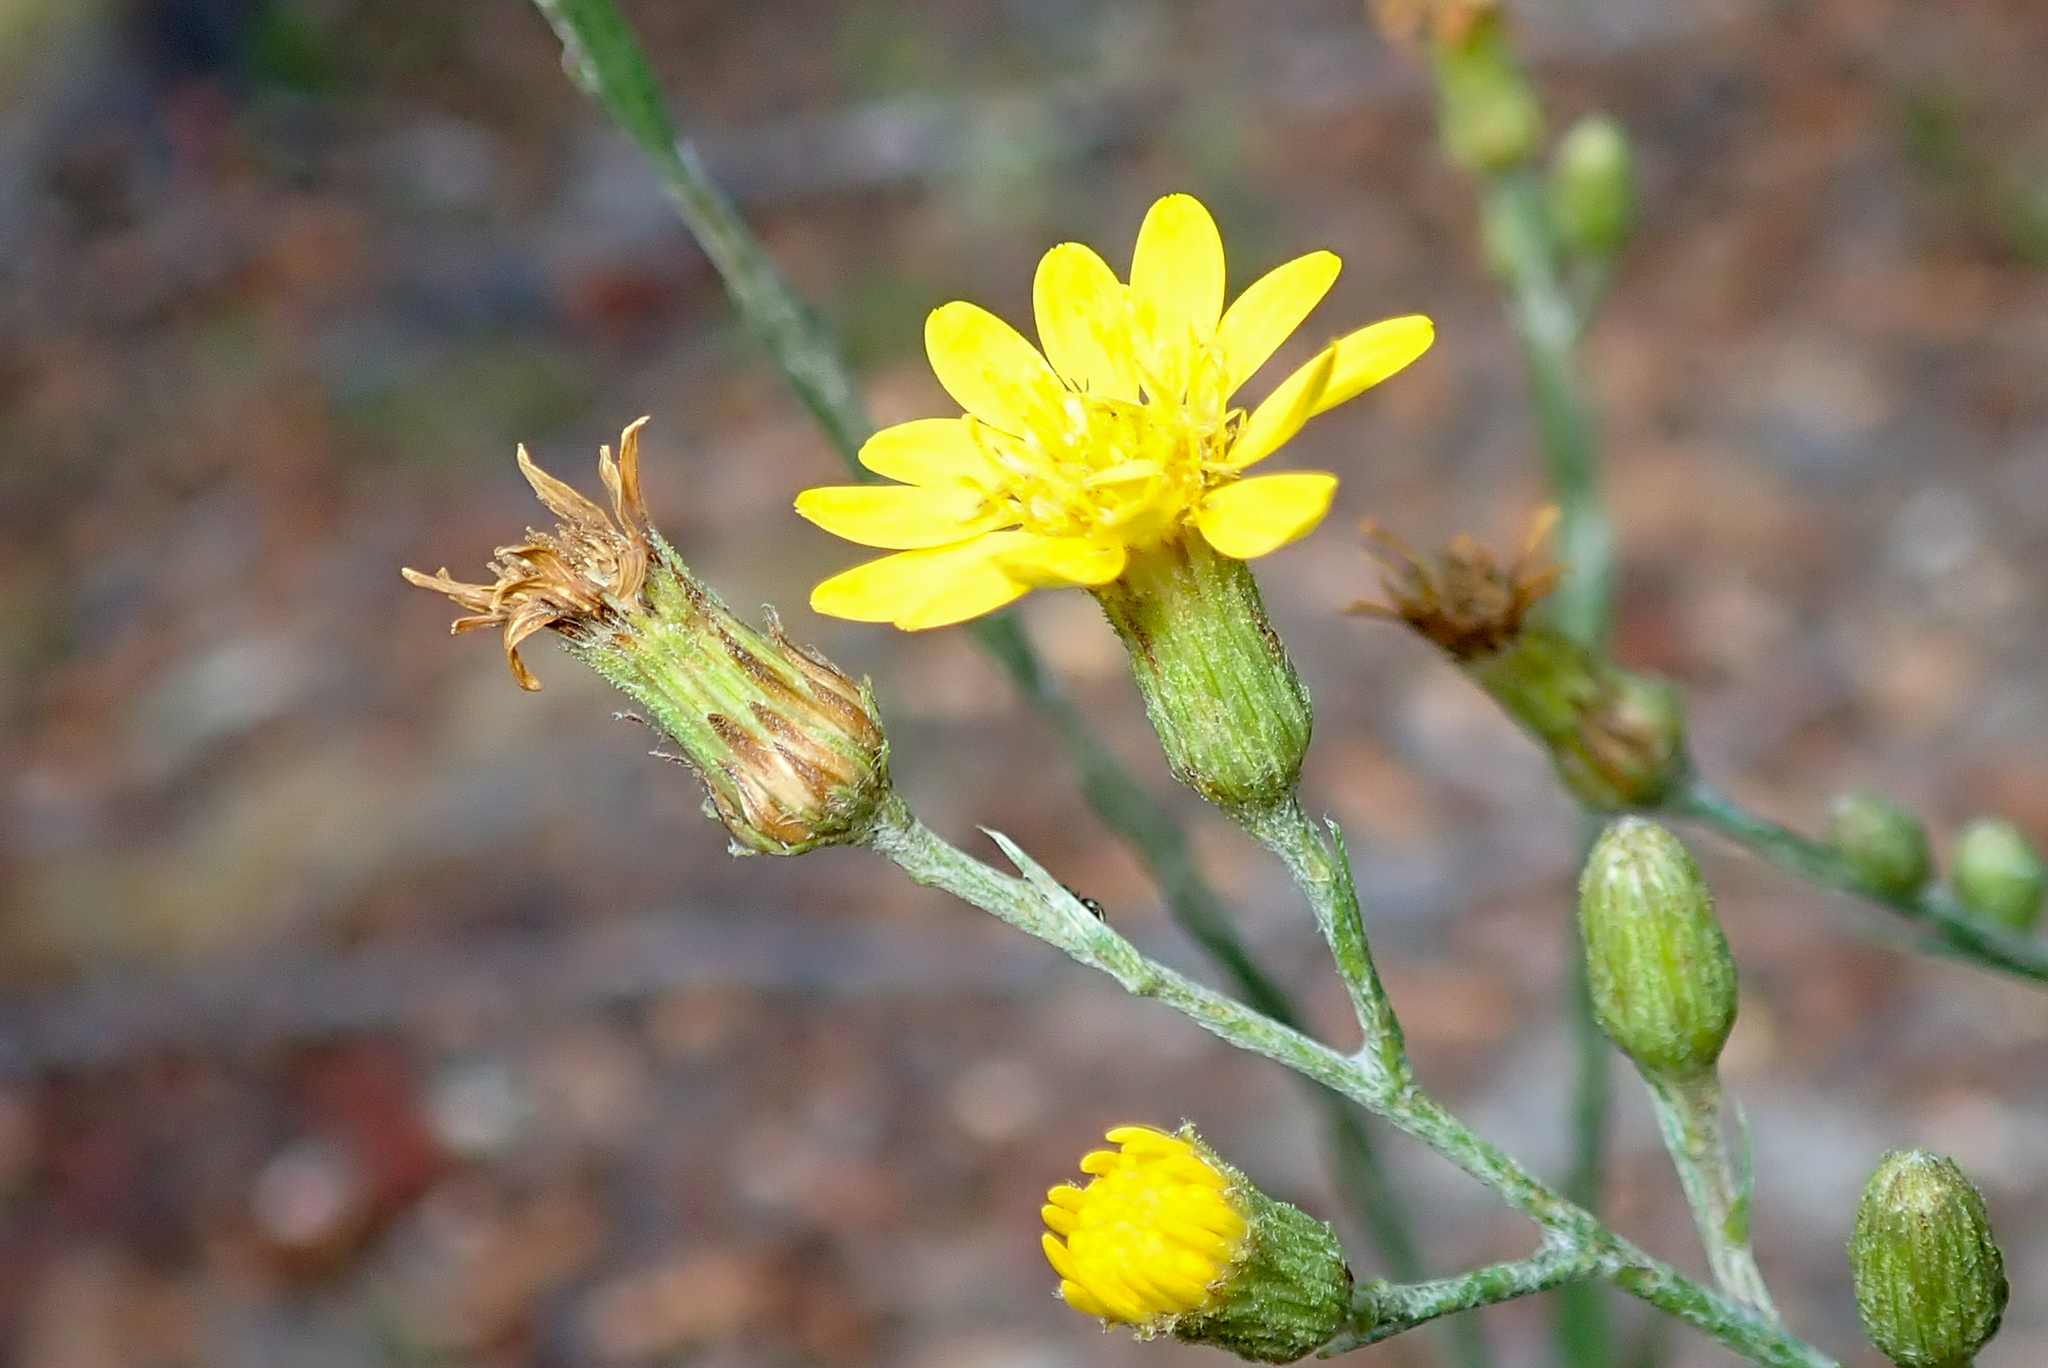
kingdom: Plantae
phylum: Tracheophyta
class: Magnoliopsida
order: Asterales
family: Asteraceae
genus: Pityopsis
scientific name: Pityopsis graminifolia
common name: Grass-leaf golden-aster
